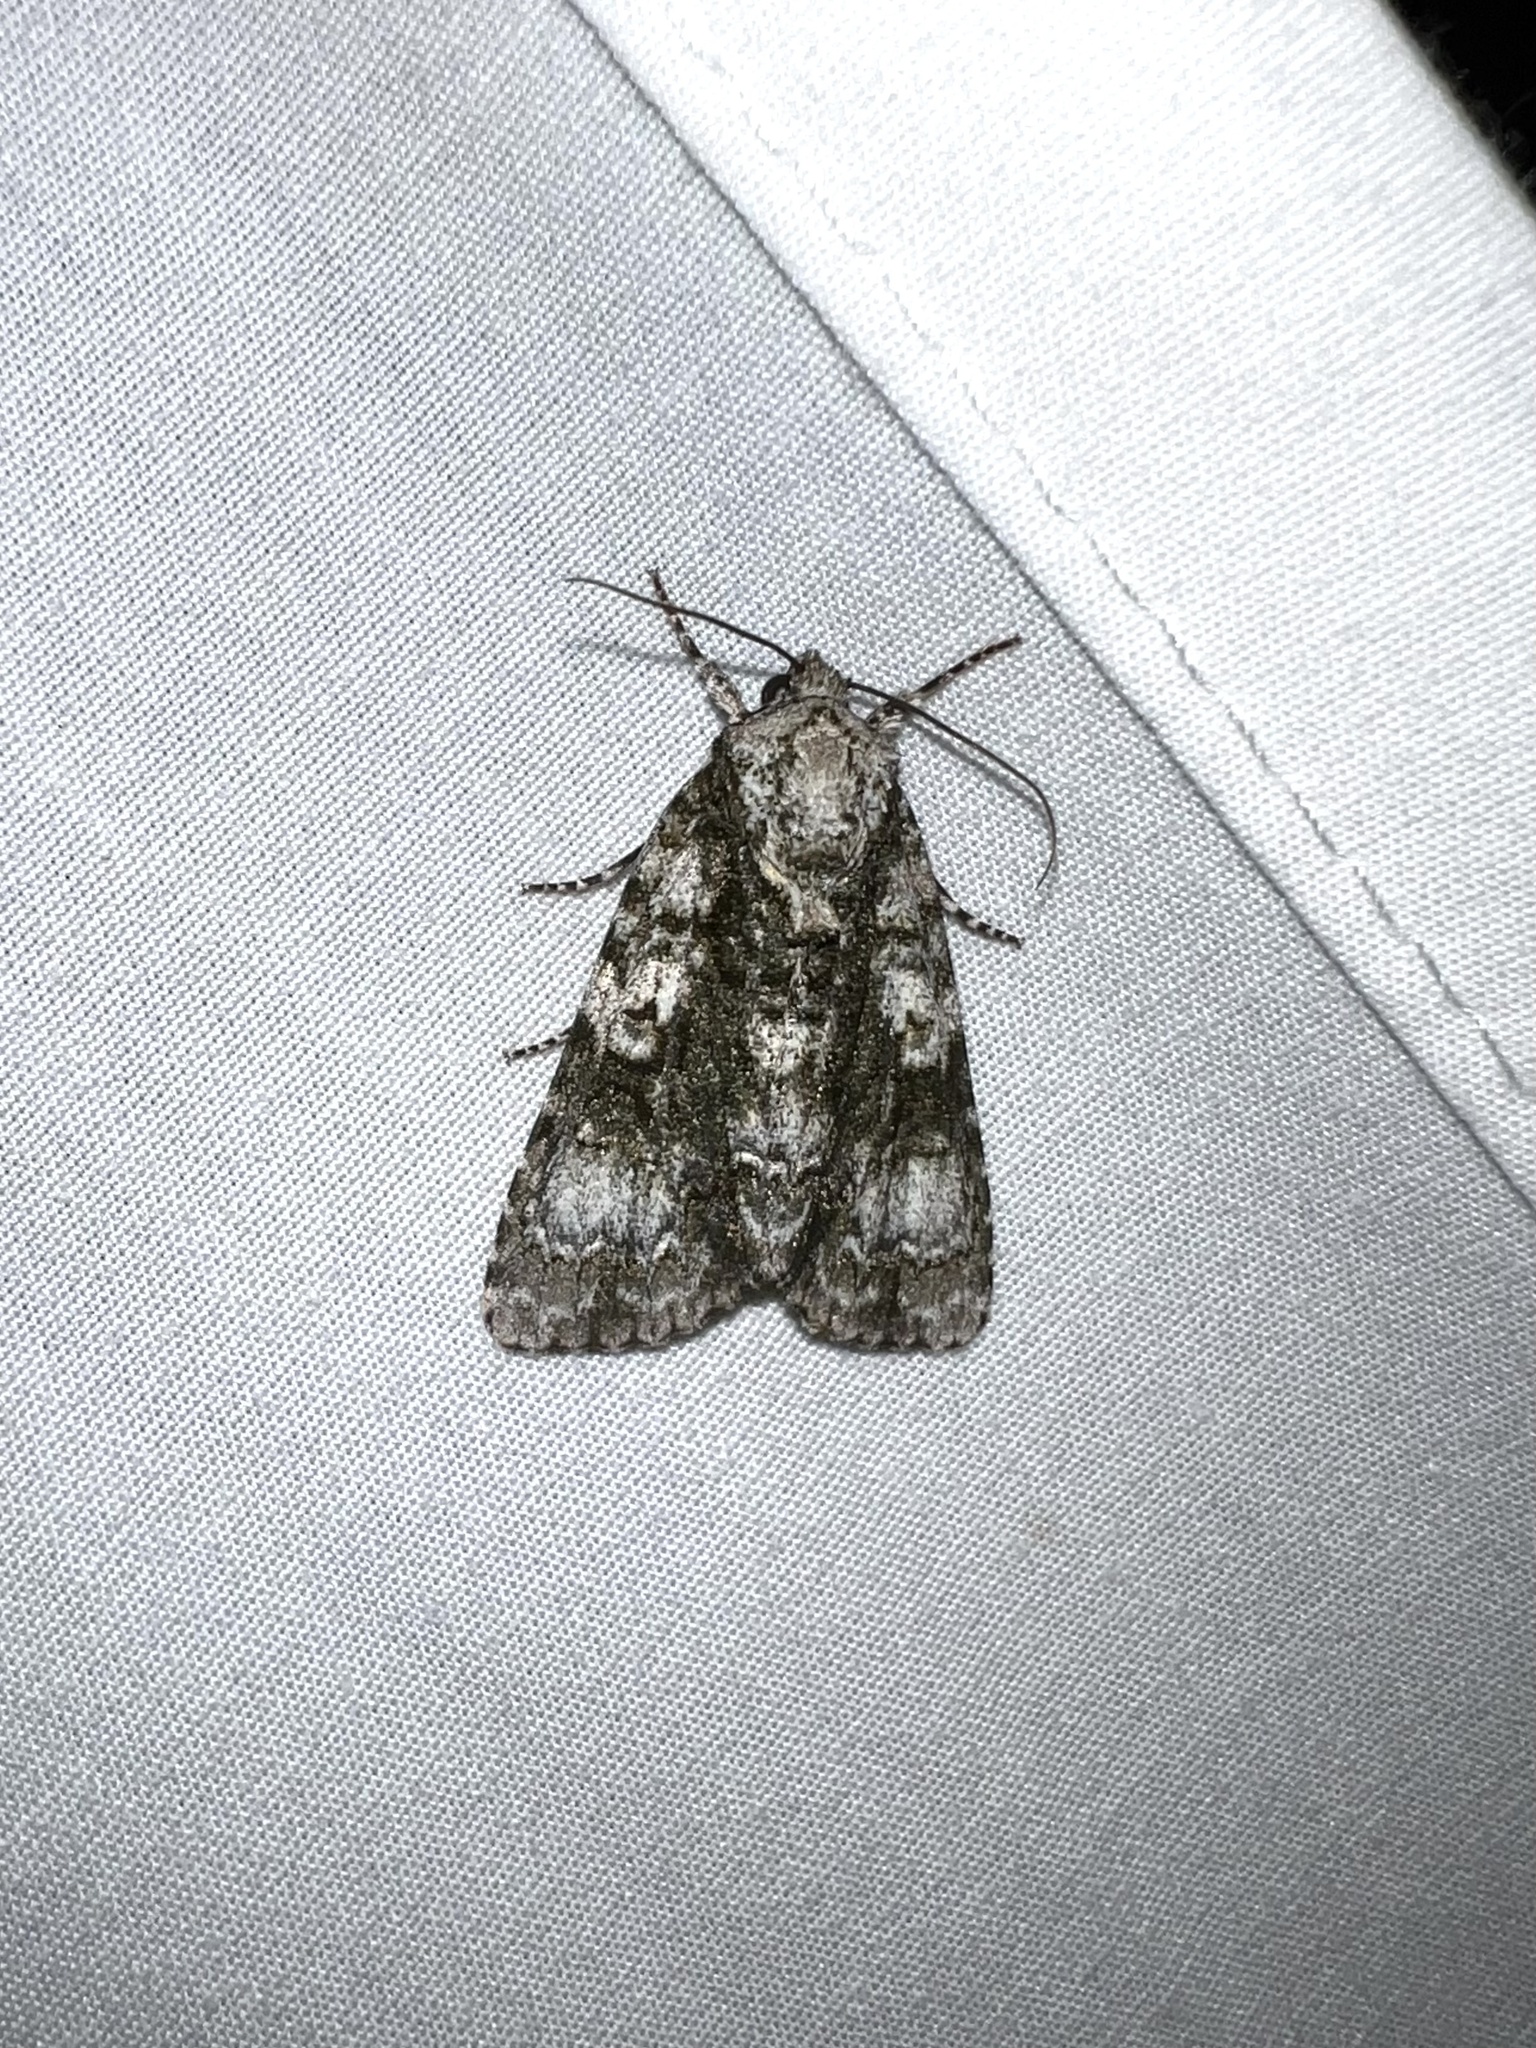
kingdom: Animalia
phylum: Arthropoda
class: Insecta
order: Lepidoptera
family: Noctuidae
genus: Acronicta
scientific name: Acronicta superans
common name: Splendid dagger
